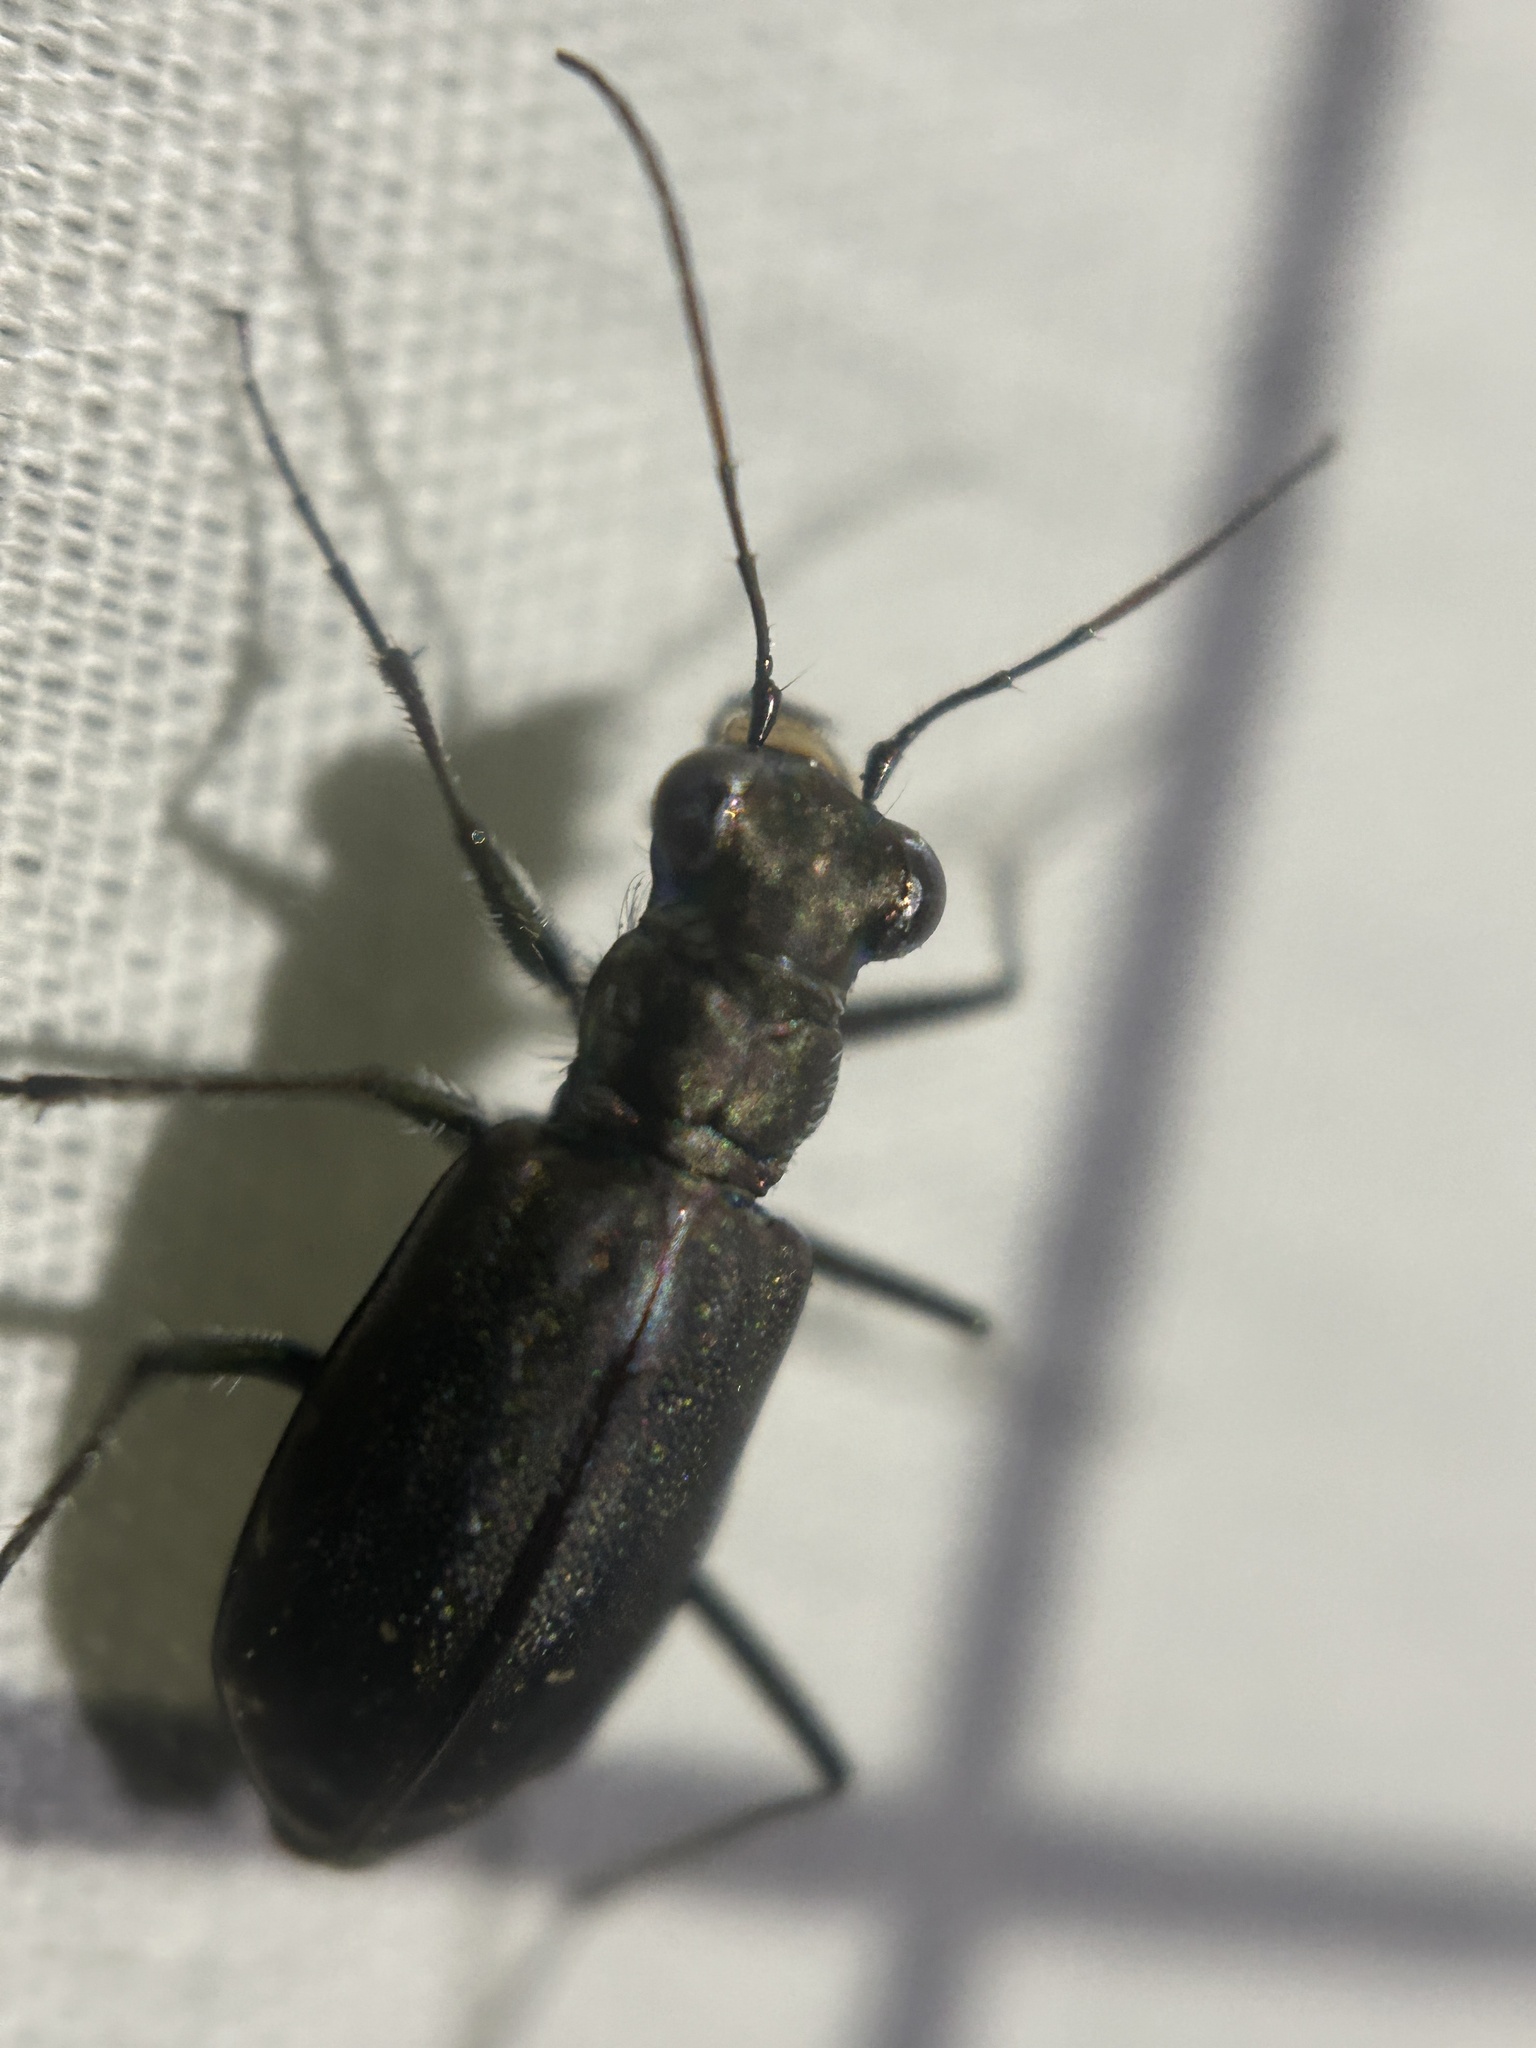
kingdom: Animalia
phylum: Arthropoda
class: Insecta
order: Coleoptera
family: Carabidae
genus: Cicindela
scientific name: Cicindela punctulata
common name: Punctured tiger beetle
